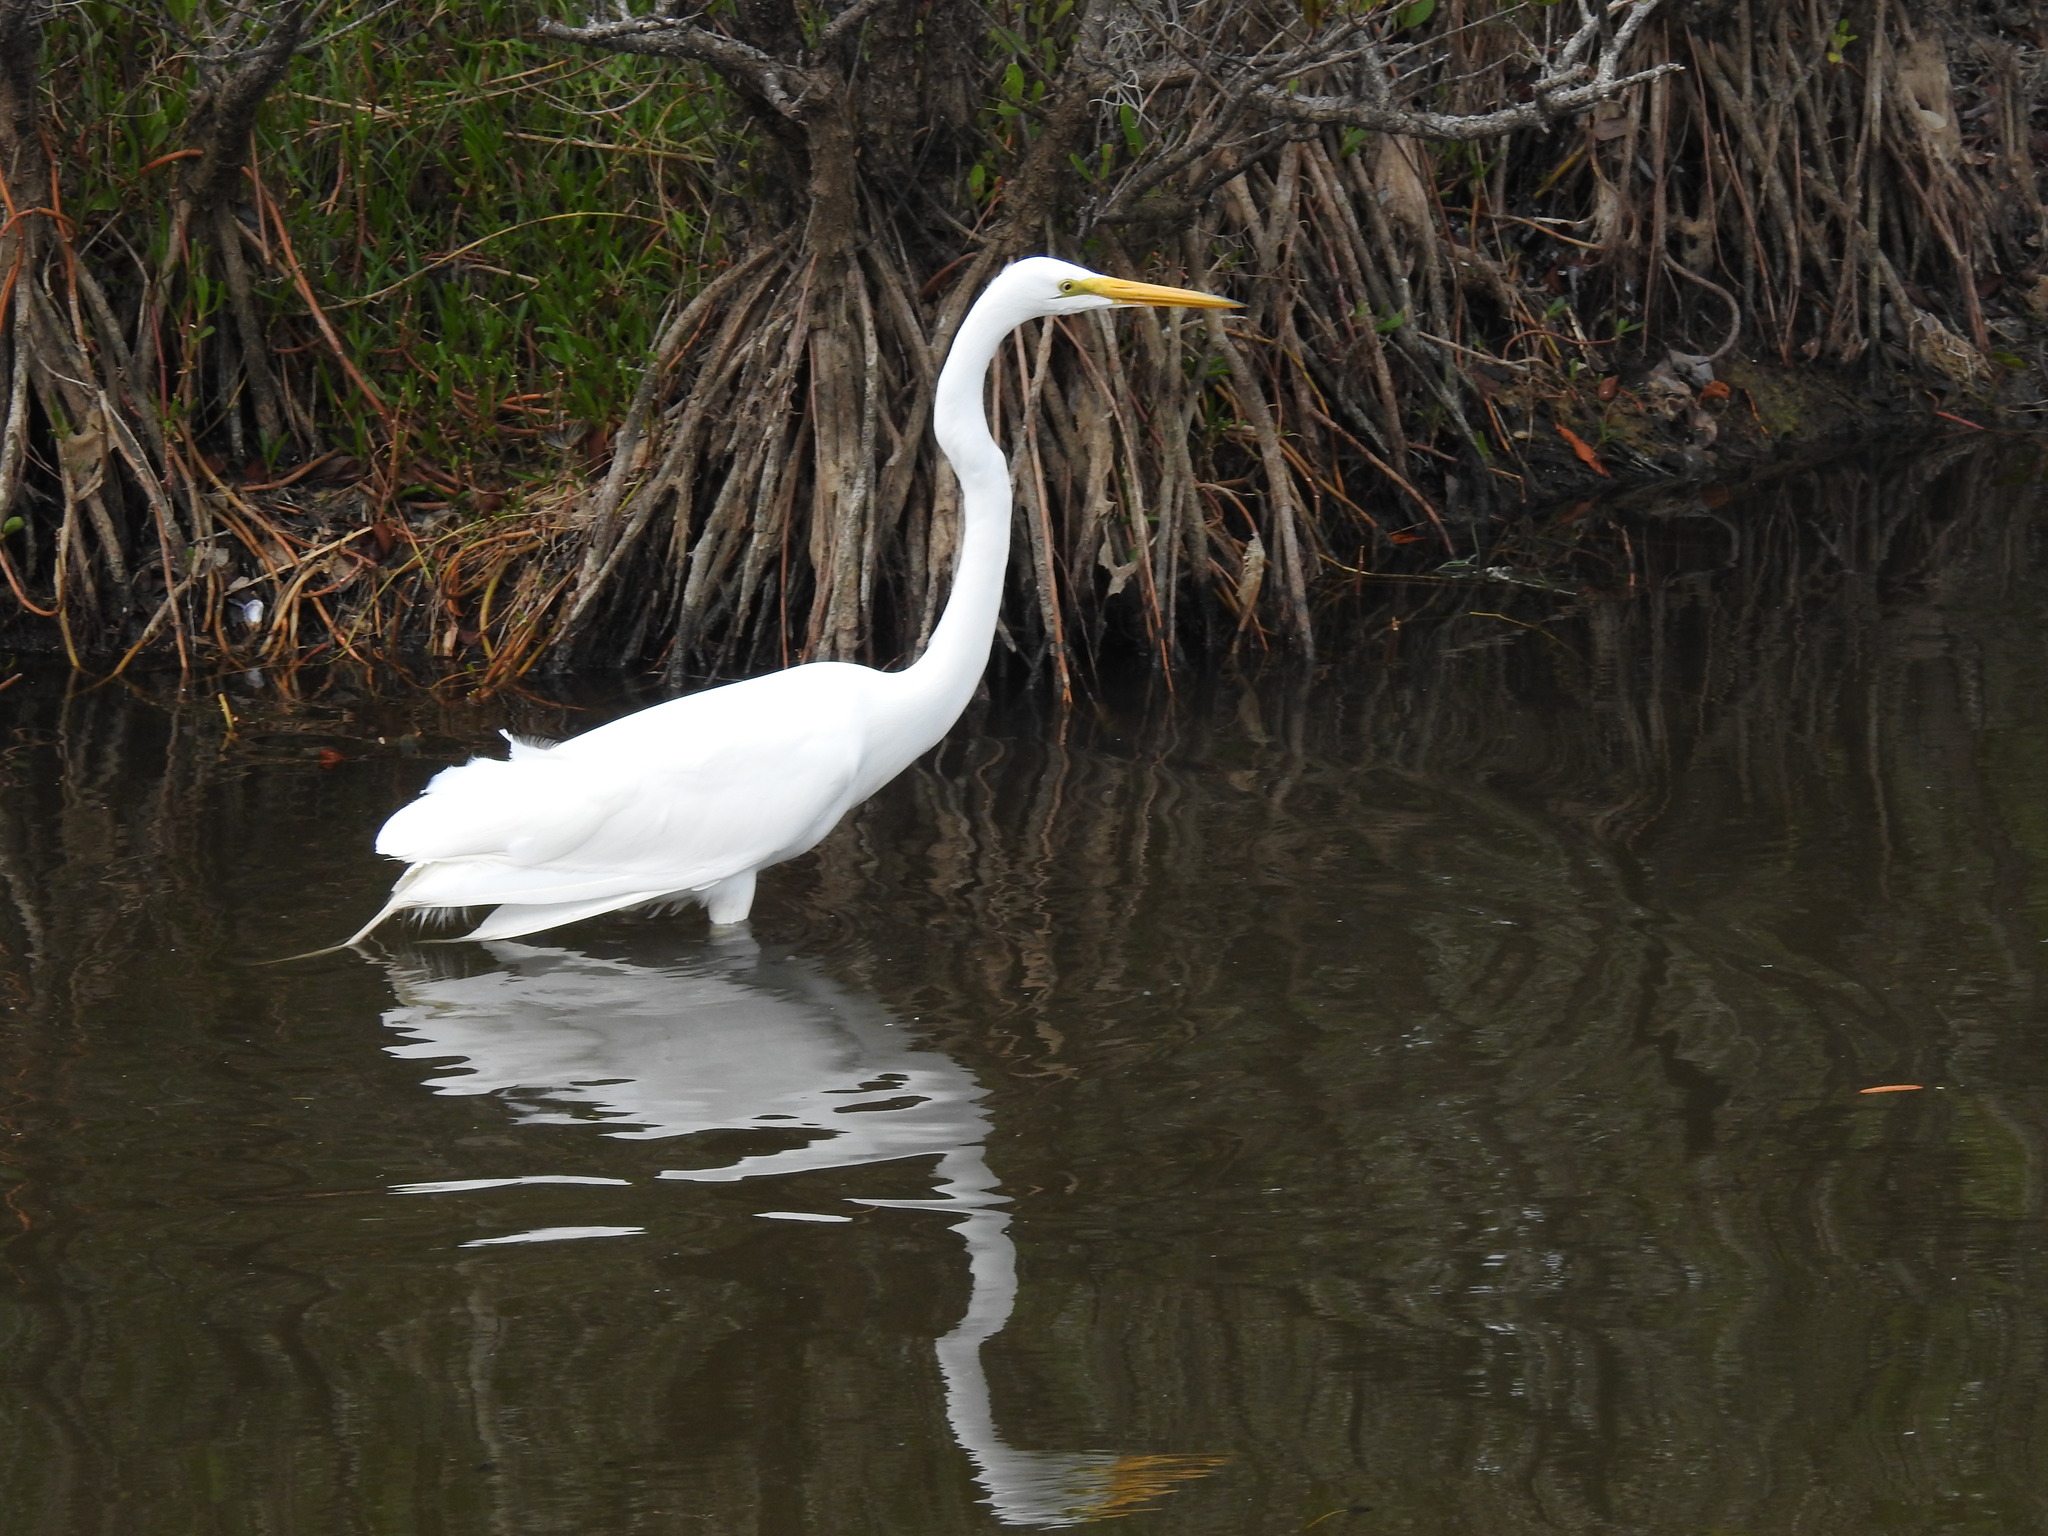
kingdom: Animalia
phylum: Chordata
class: Aves
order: Pelecaniformes
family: Ardeidae
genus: Ardea
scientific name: Ardea alba
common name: Great egret
